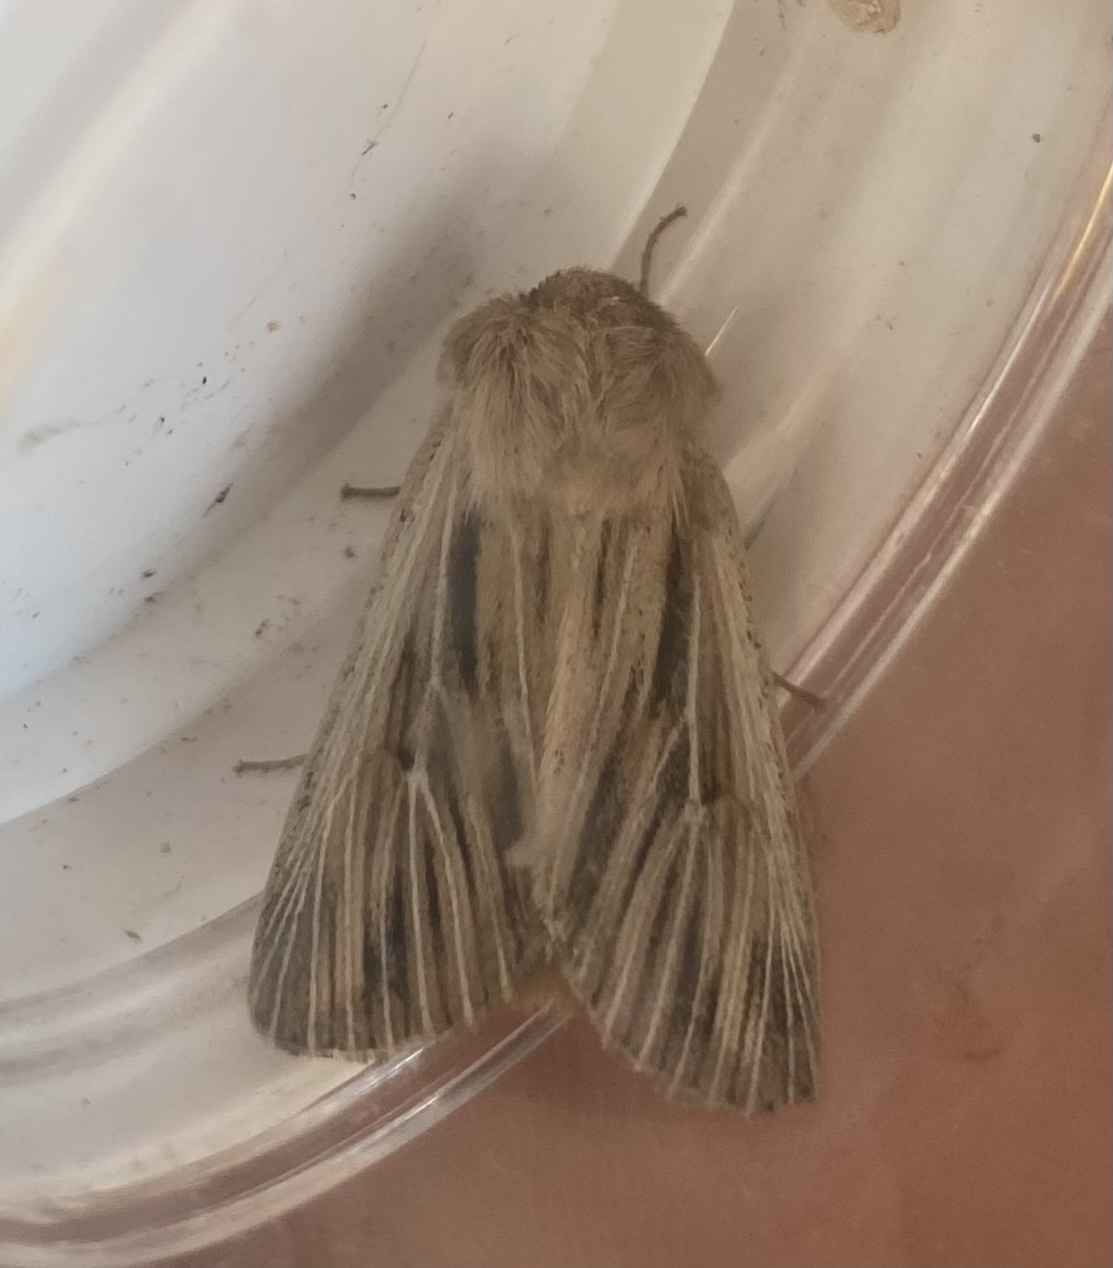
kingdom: Animalia
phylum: Arthropoda
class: Insecta
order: Lepidoptera
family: Noctuidae
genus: Leucania
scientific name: Leucania comma
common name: Shoulder-striped wainscot
